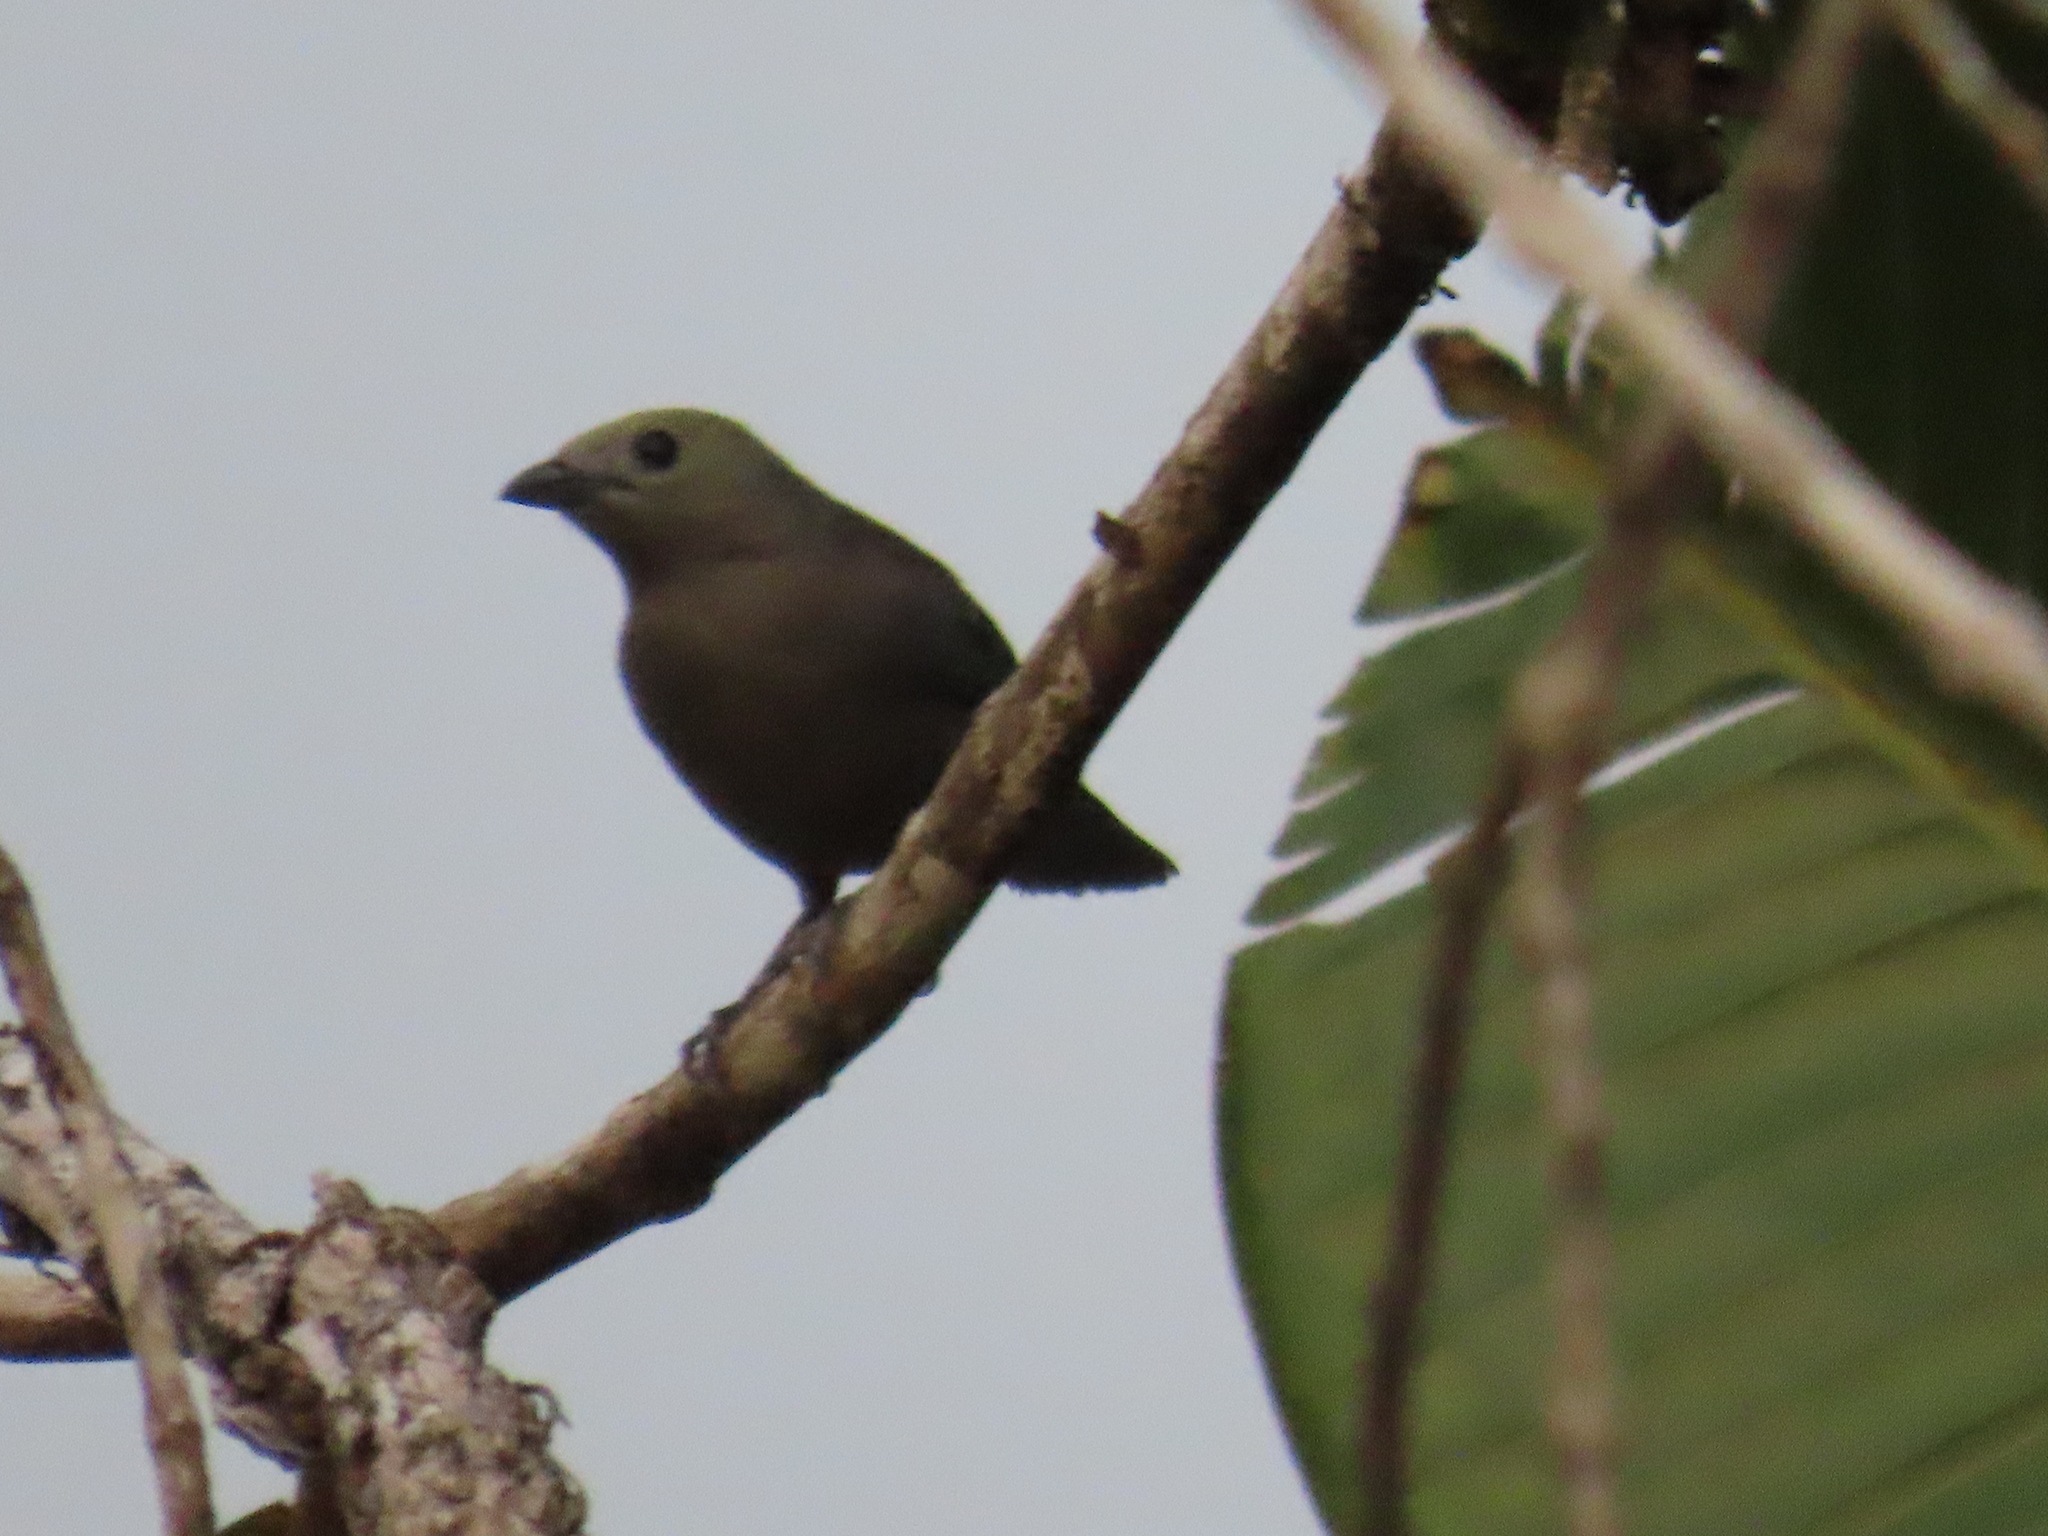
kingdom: Animalia
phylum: Chordata
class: Aves
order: Passeriformes
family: Thraupidae
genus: Thraupis
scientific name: Thraupis palmarum
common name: Palm tanager
